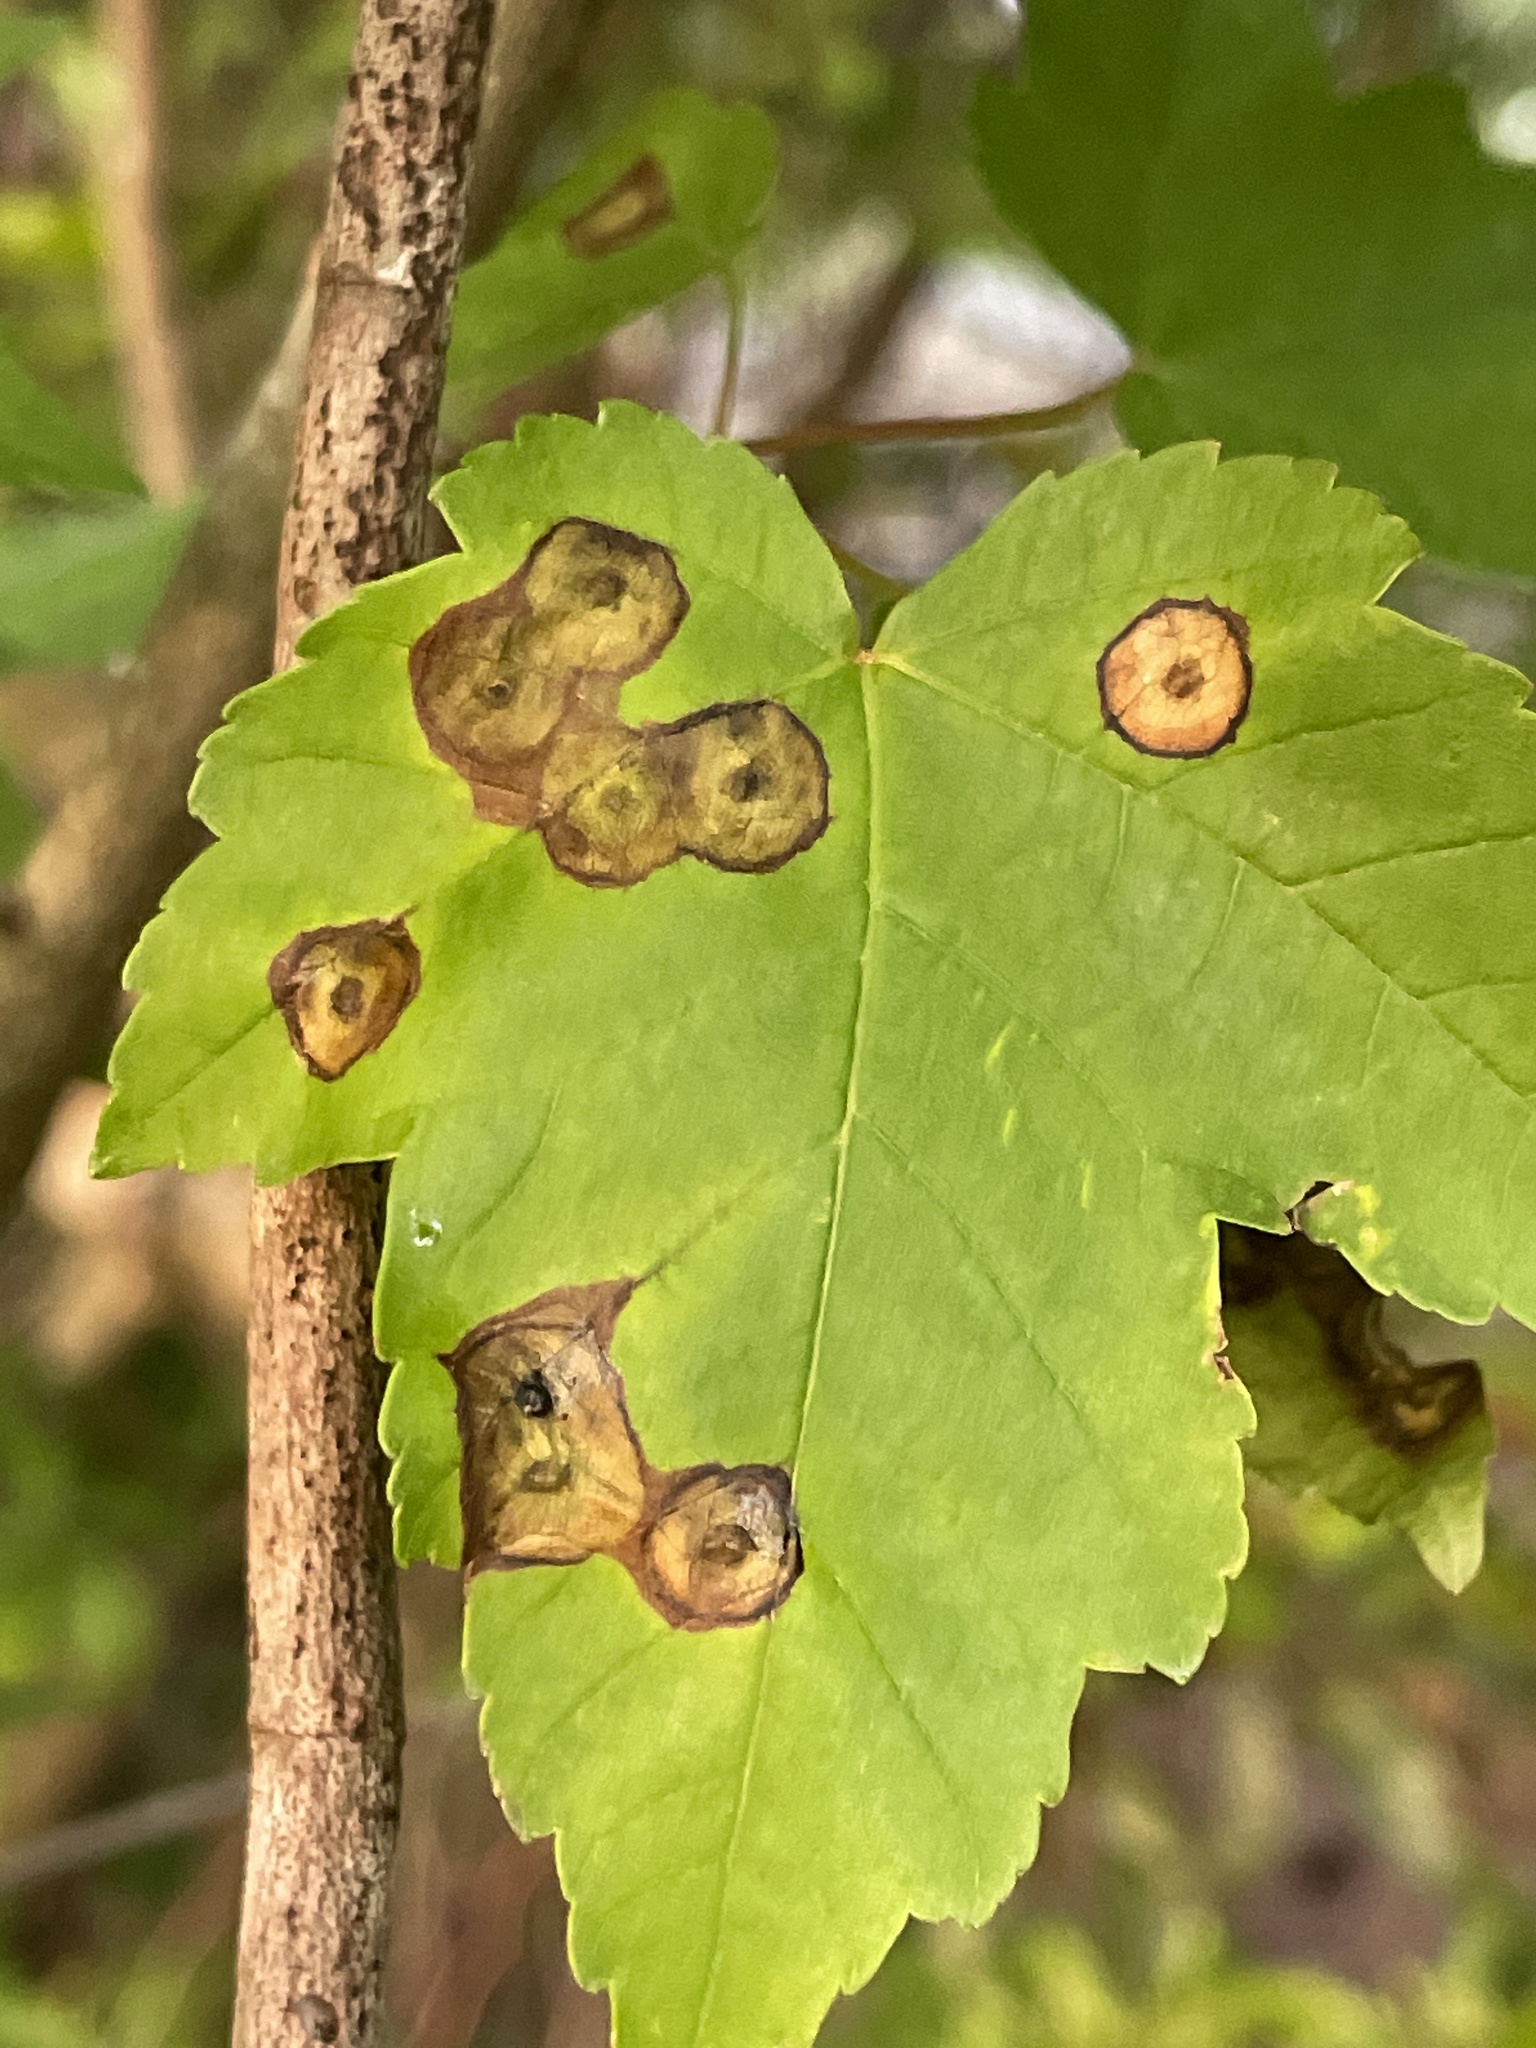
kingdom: Animalia
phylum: Arthropoda
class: Insecta
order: Diptera
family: Cecidomyiidae
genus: Acericecis
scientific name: Acericecis ocellaris
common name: Ocellate gall midge
